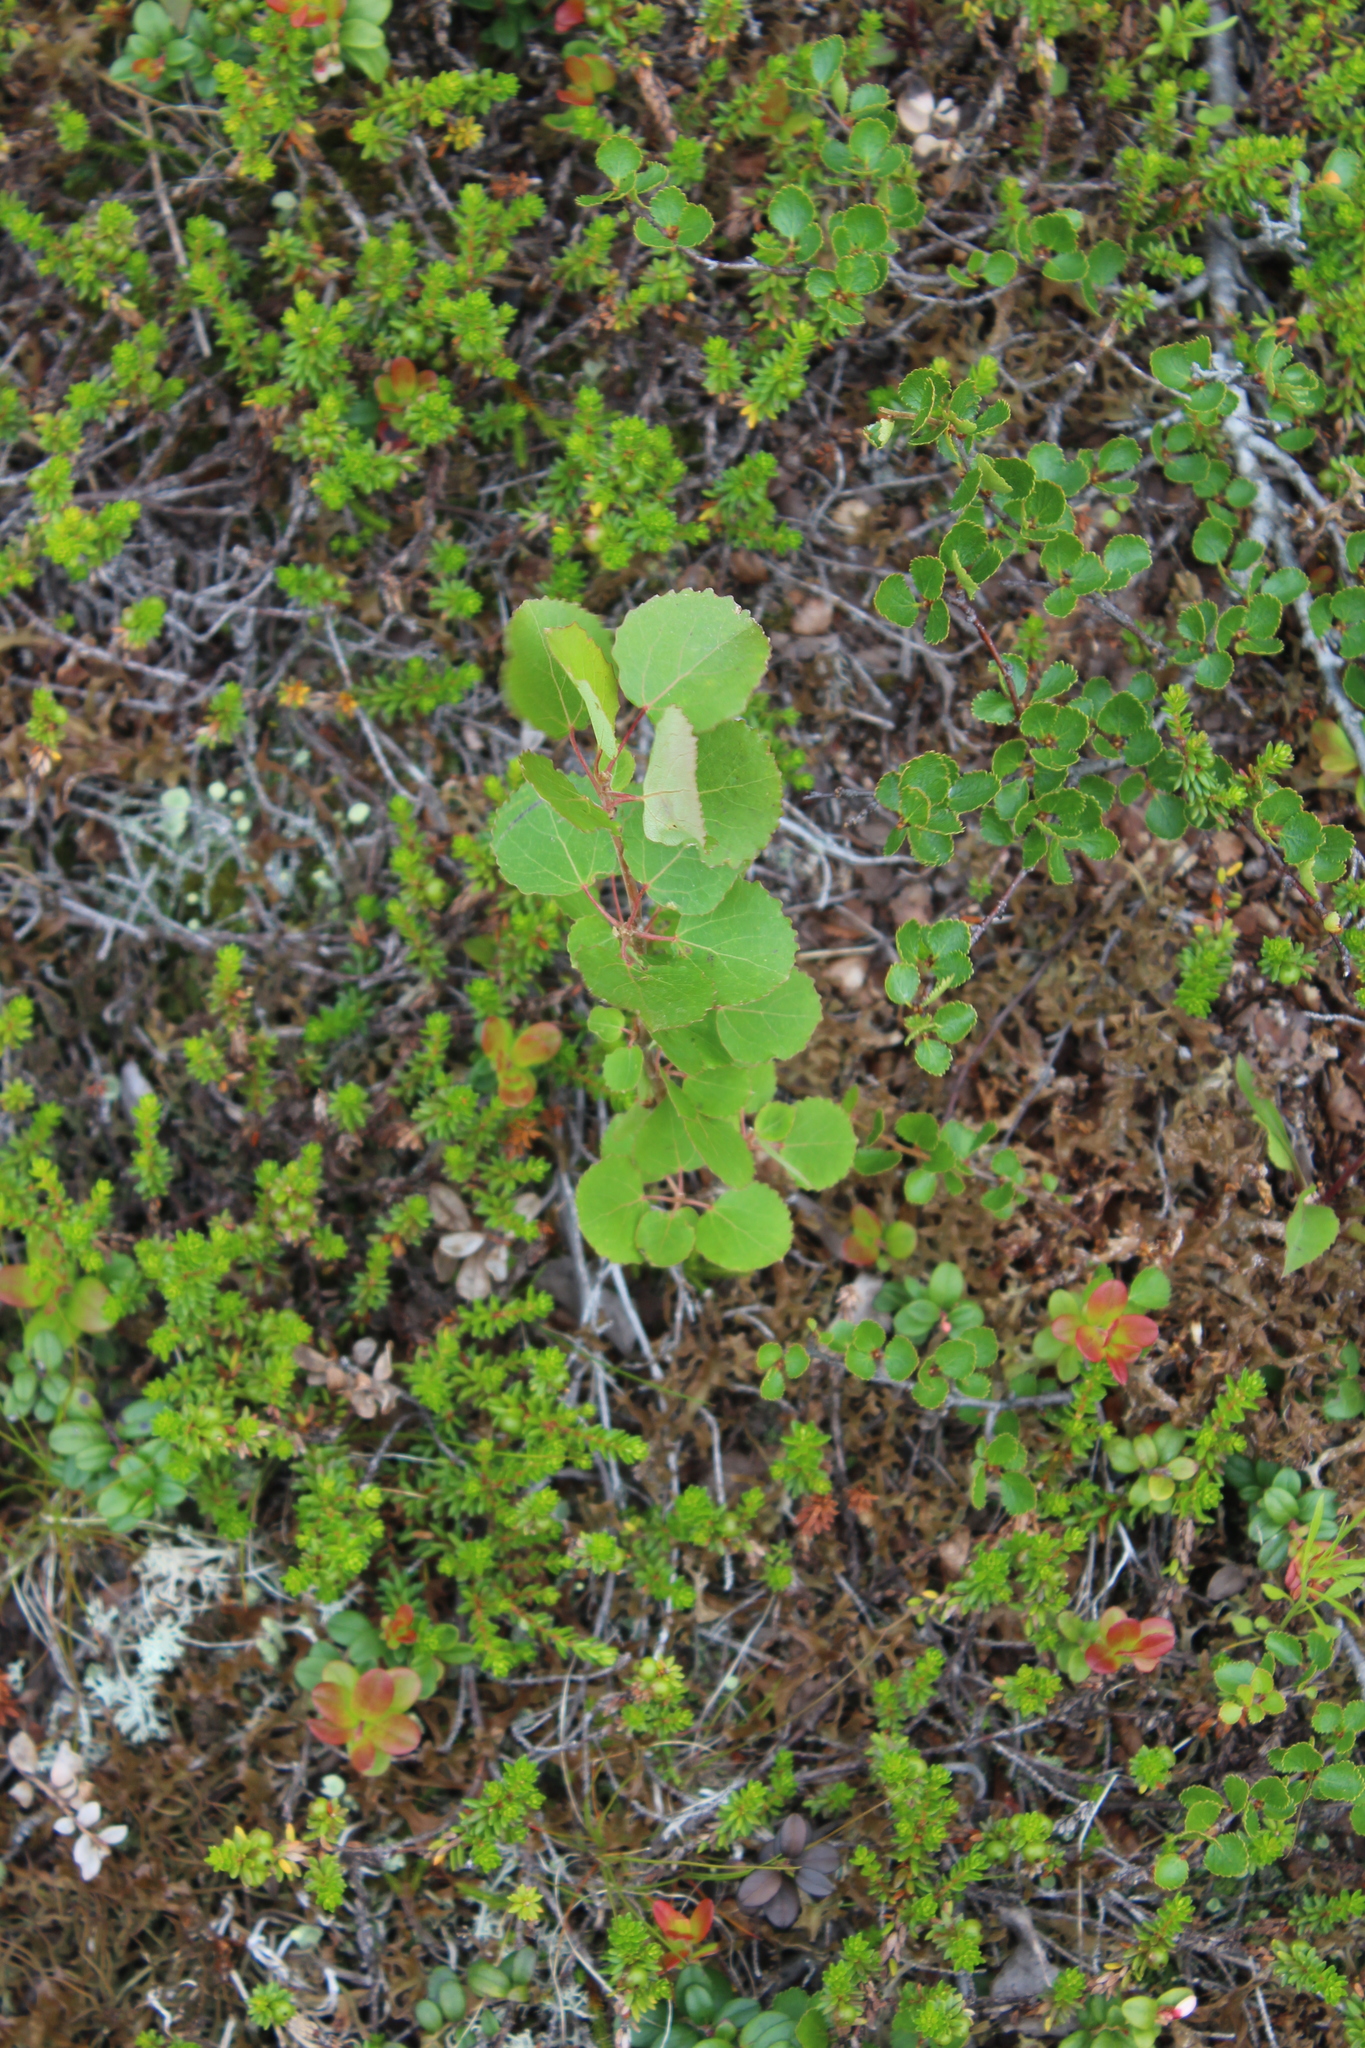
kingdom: Plantae
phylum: Tracheophyta
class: Magnoliopsida
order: Malpighiales
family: Salicaceae
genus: Populus
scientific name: Populus tremula
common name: European aspen
